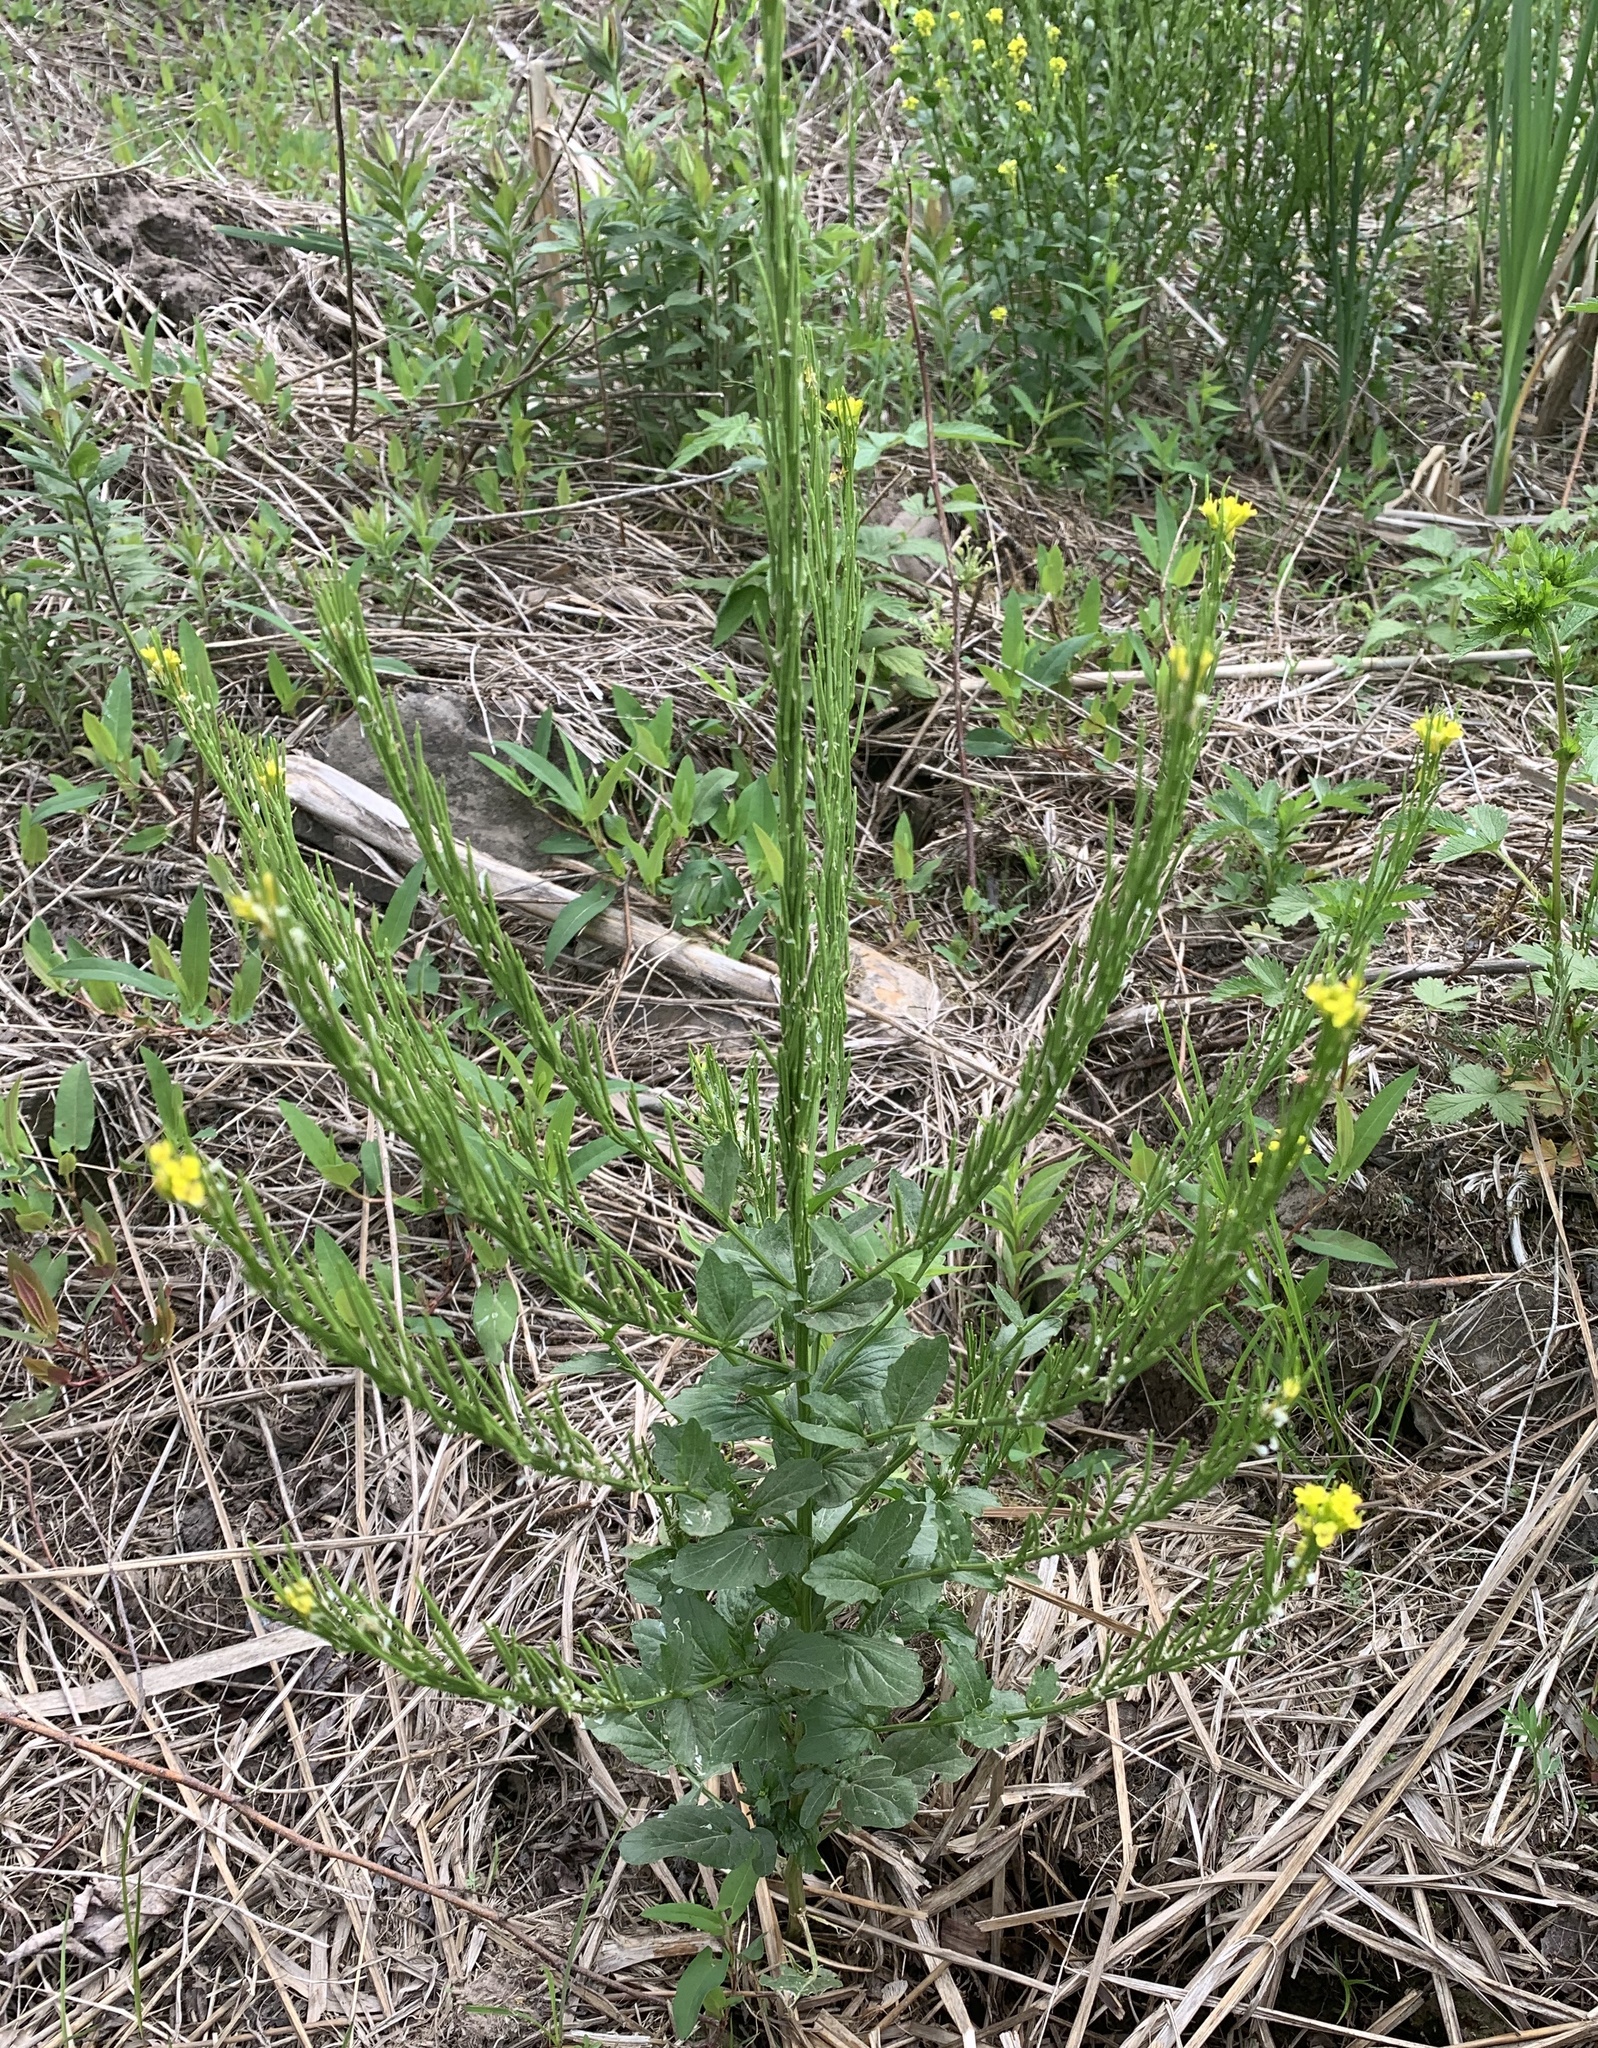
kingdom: Plantae
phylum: Tracheophyta
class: Magnoliopsida
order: Brassicales
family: Brassicaceae
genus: Barbarea
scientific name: Barbarea vulgaris
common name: Cressy-greens
